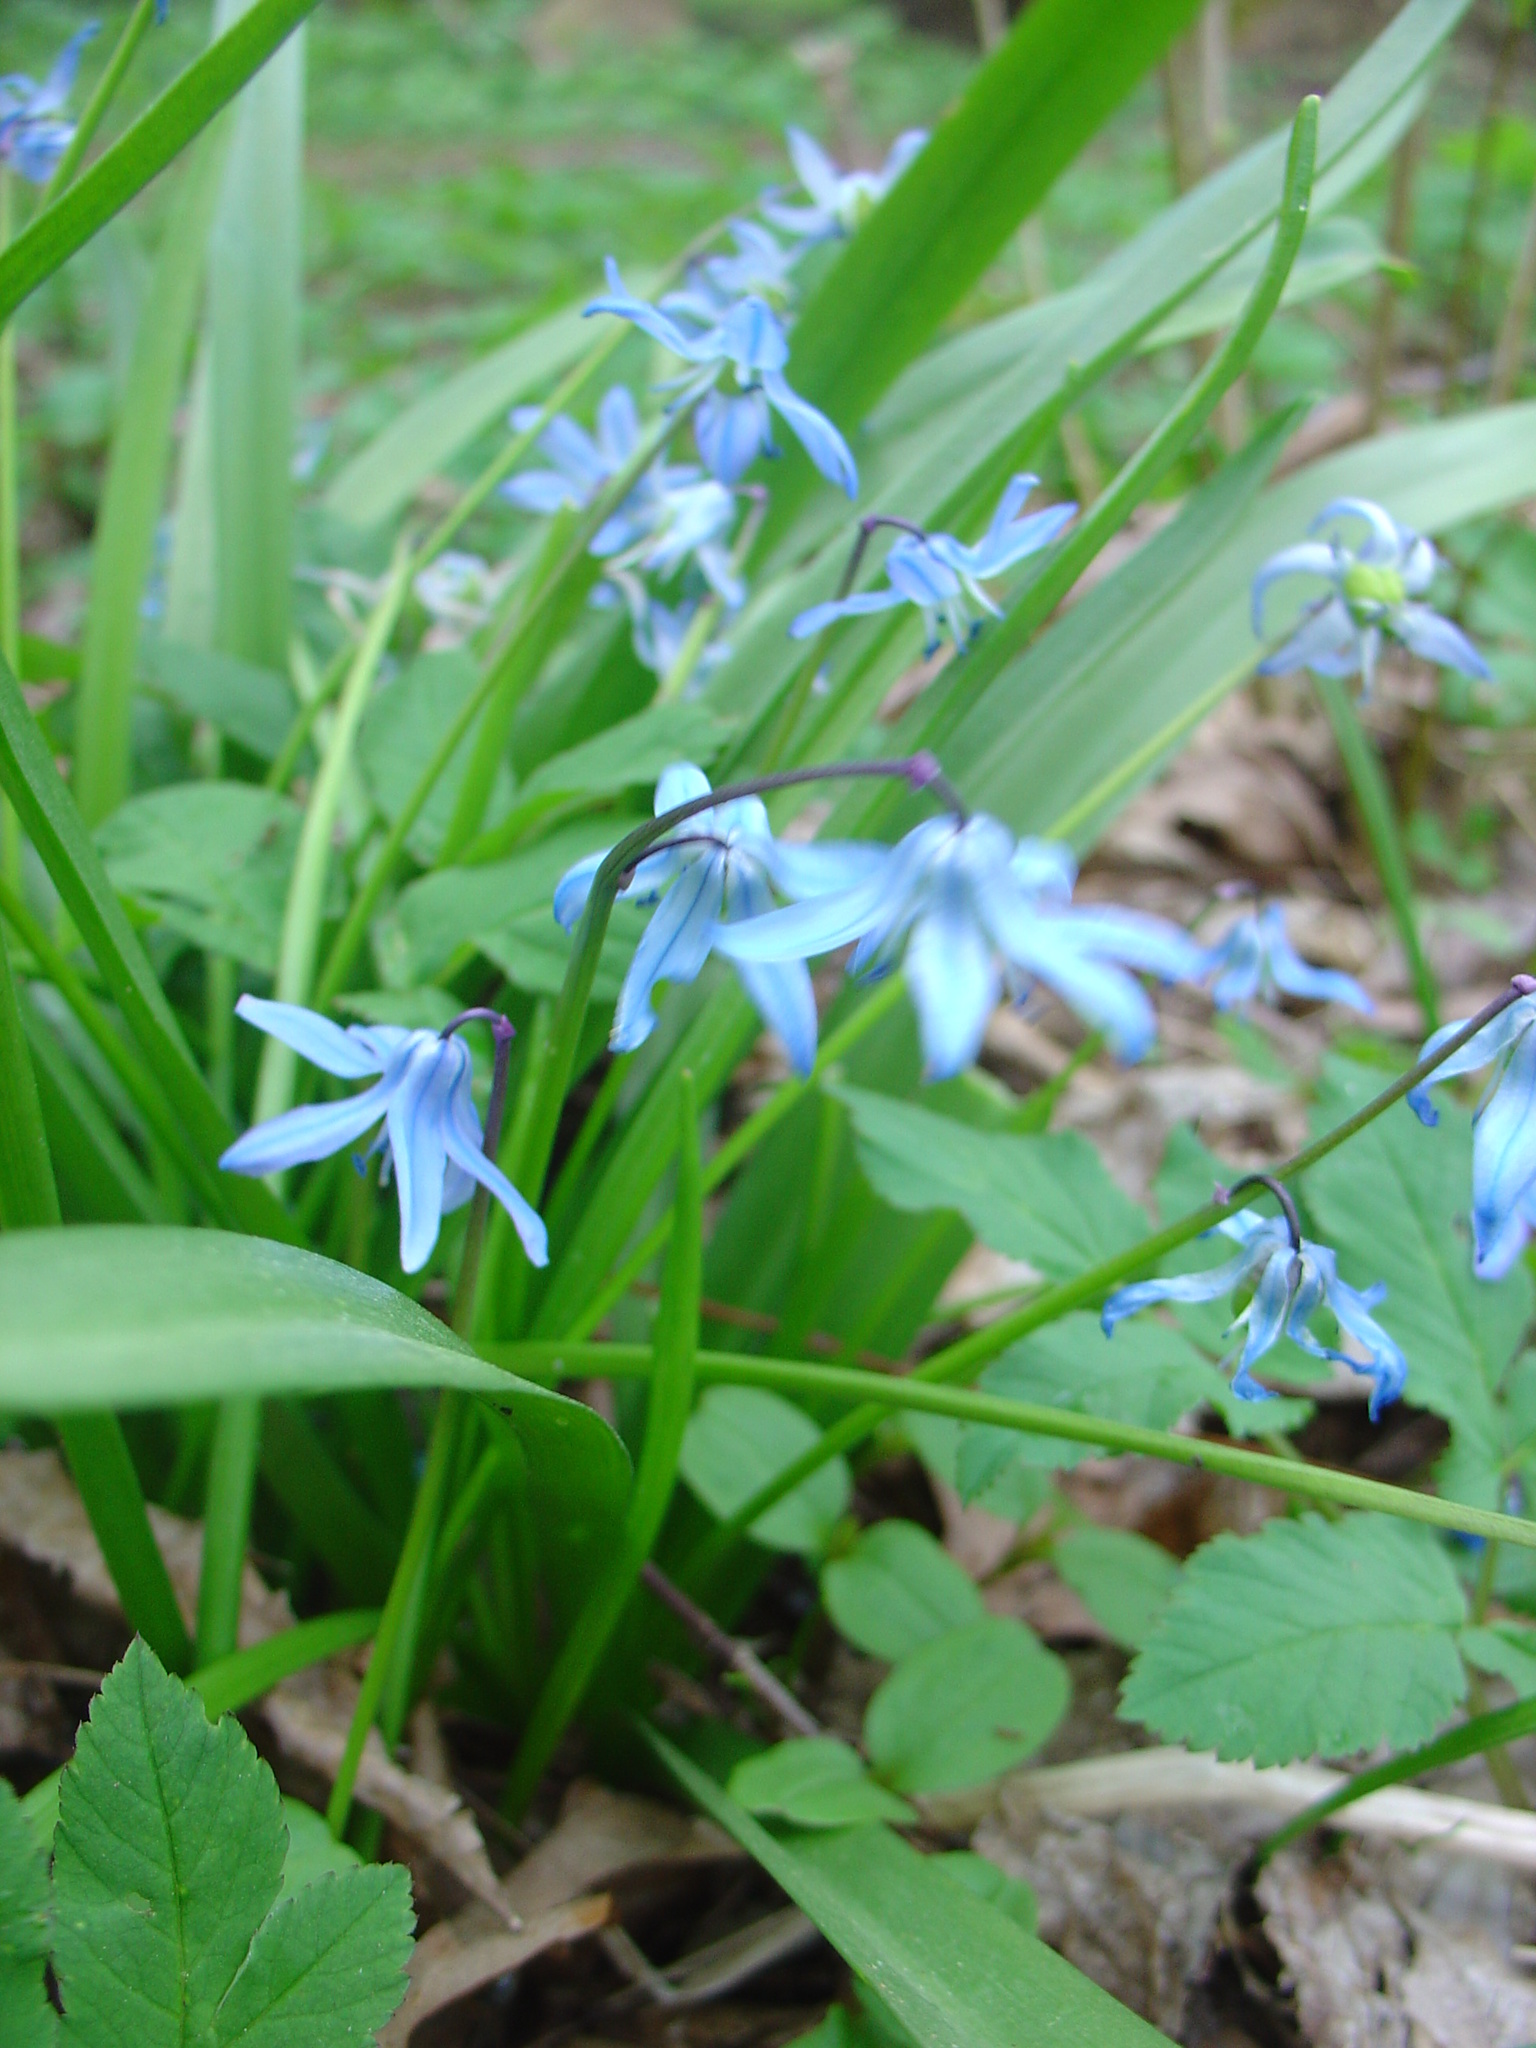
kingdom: Plantae
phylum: Tracheophyta
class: Liliopsida
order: Asparagales
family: Asparagaceae
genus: Scilla
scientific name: Scilla siberica
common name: Siberian squill
